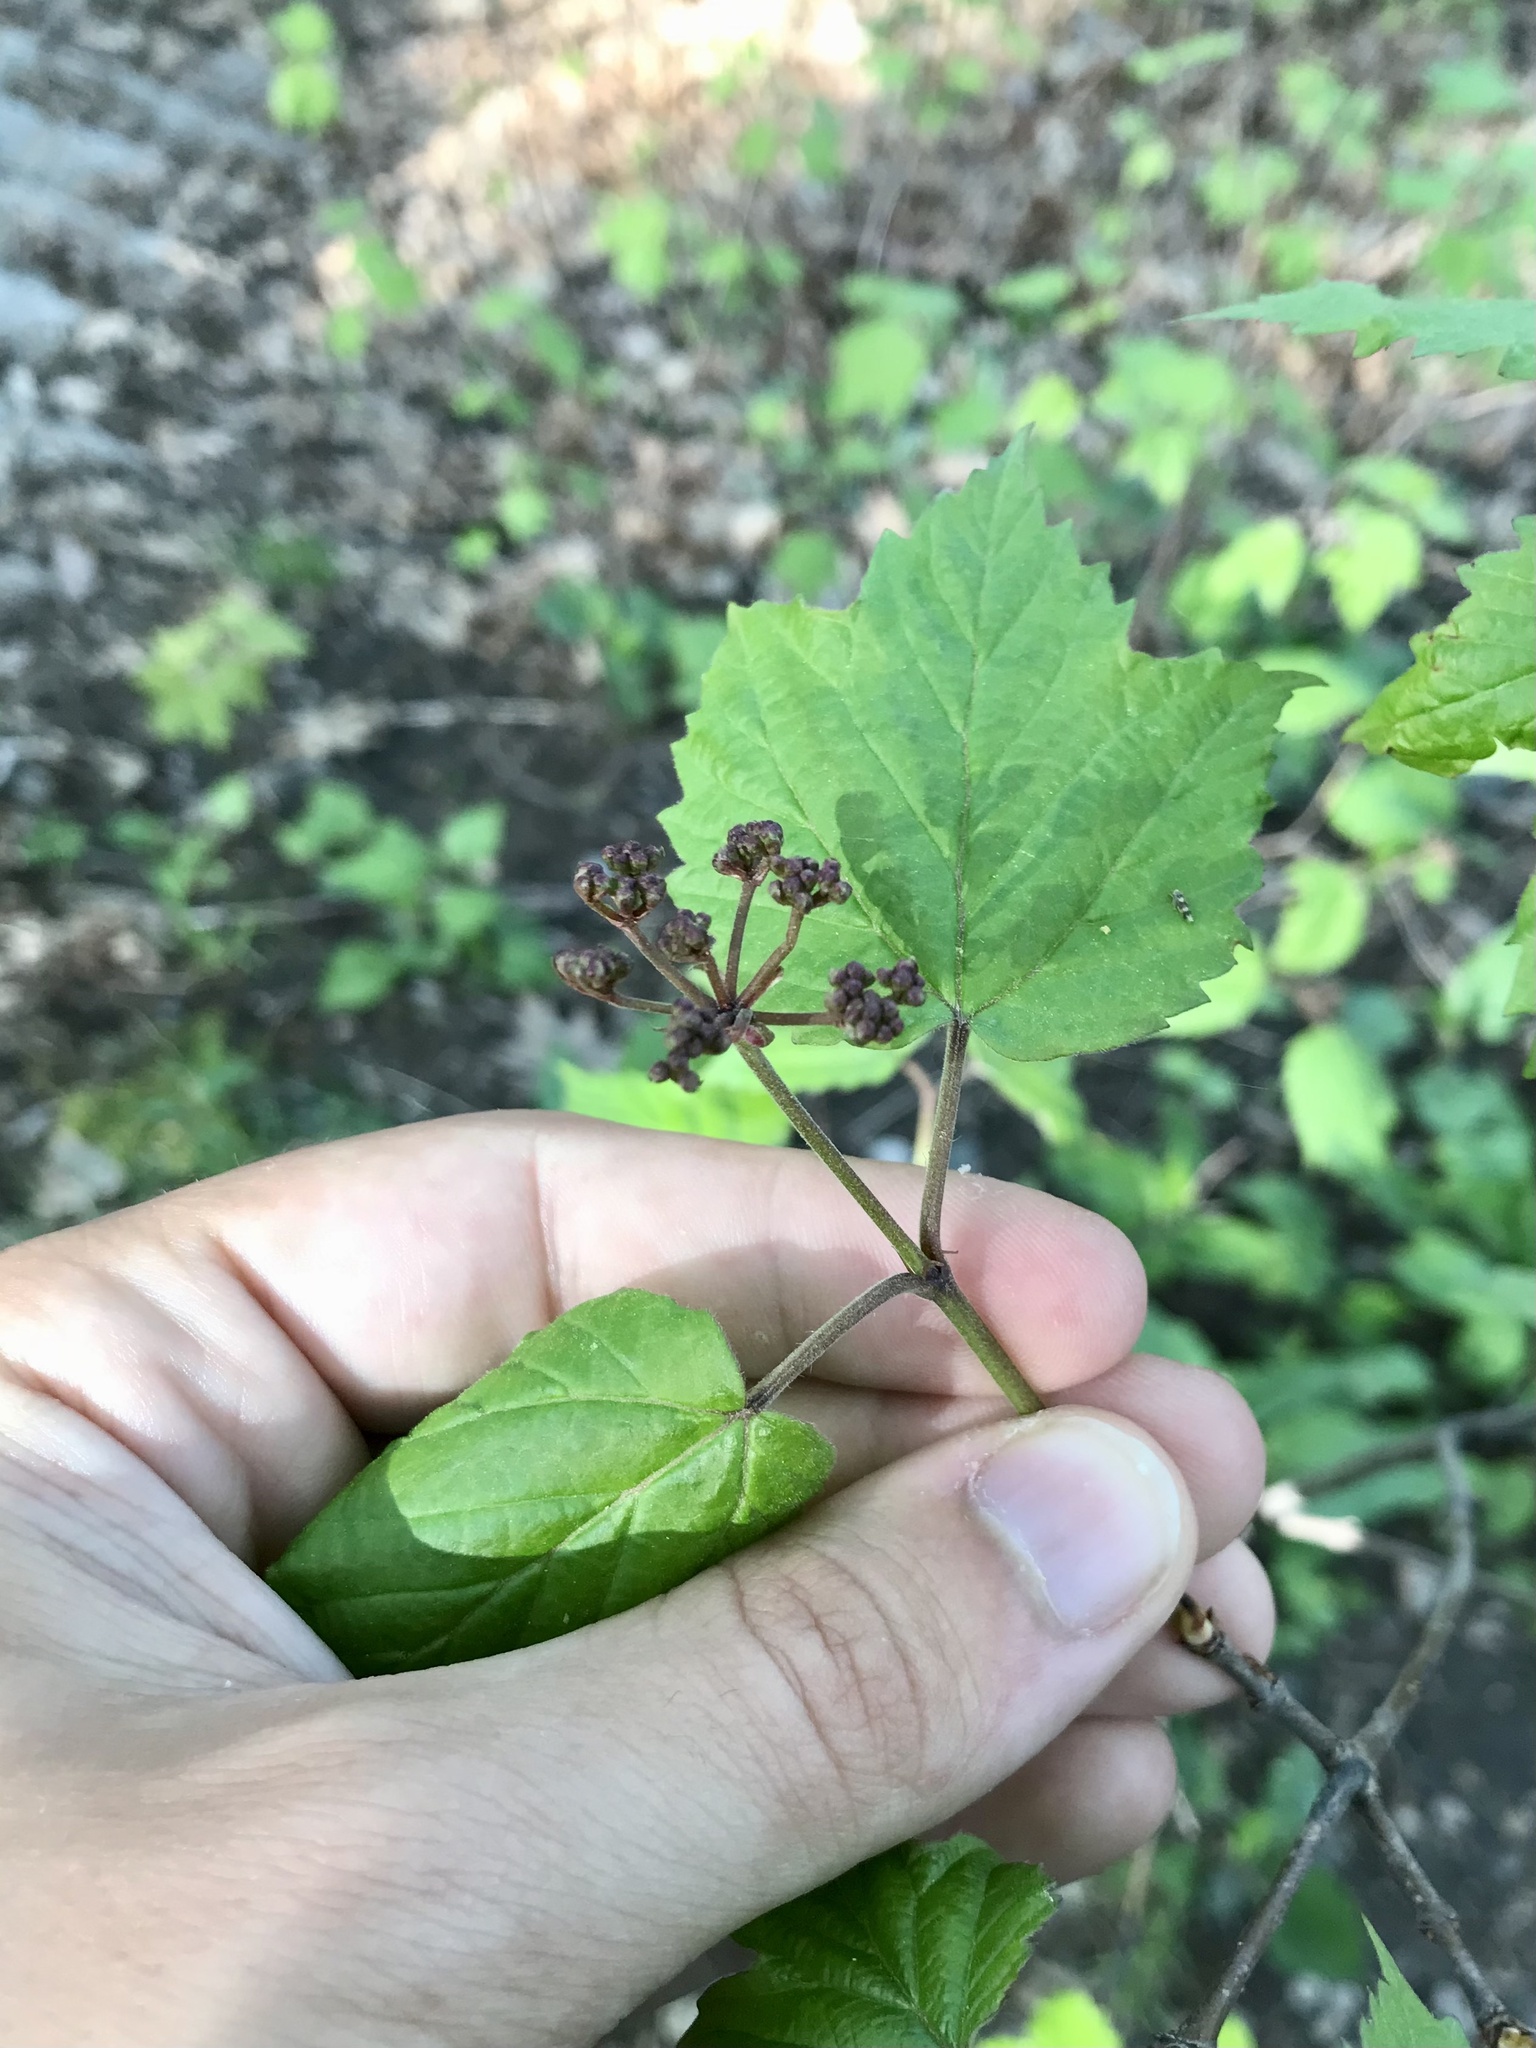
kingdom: Plantae
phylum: Tracheophyta
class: Magnoliopsida
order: Dipsacales
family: Viburnaceae
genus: Viburnum
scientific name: Viburnum acerifolium
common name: Dockmackie
